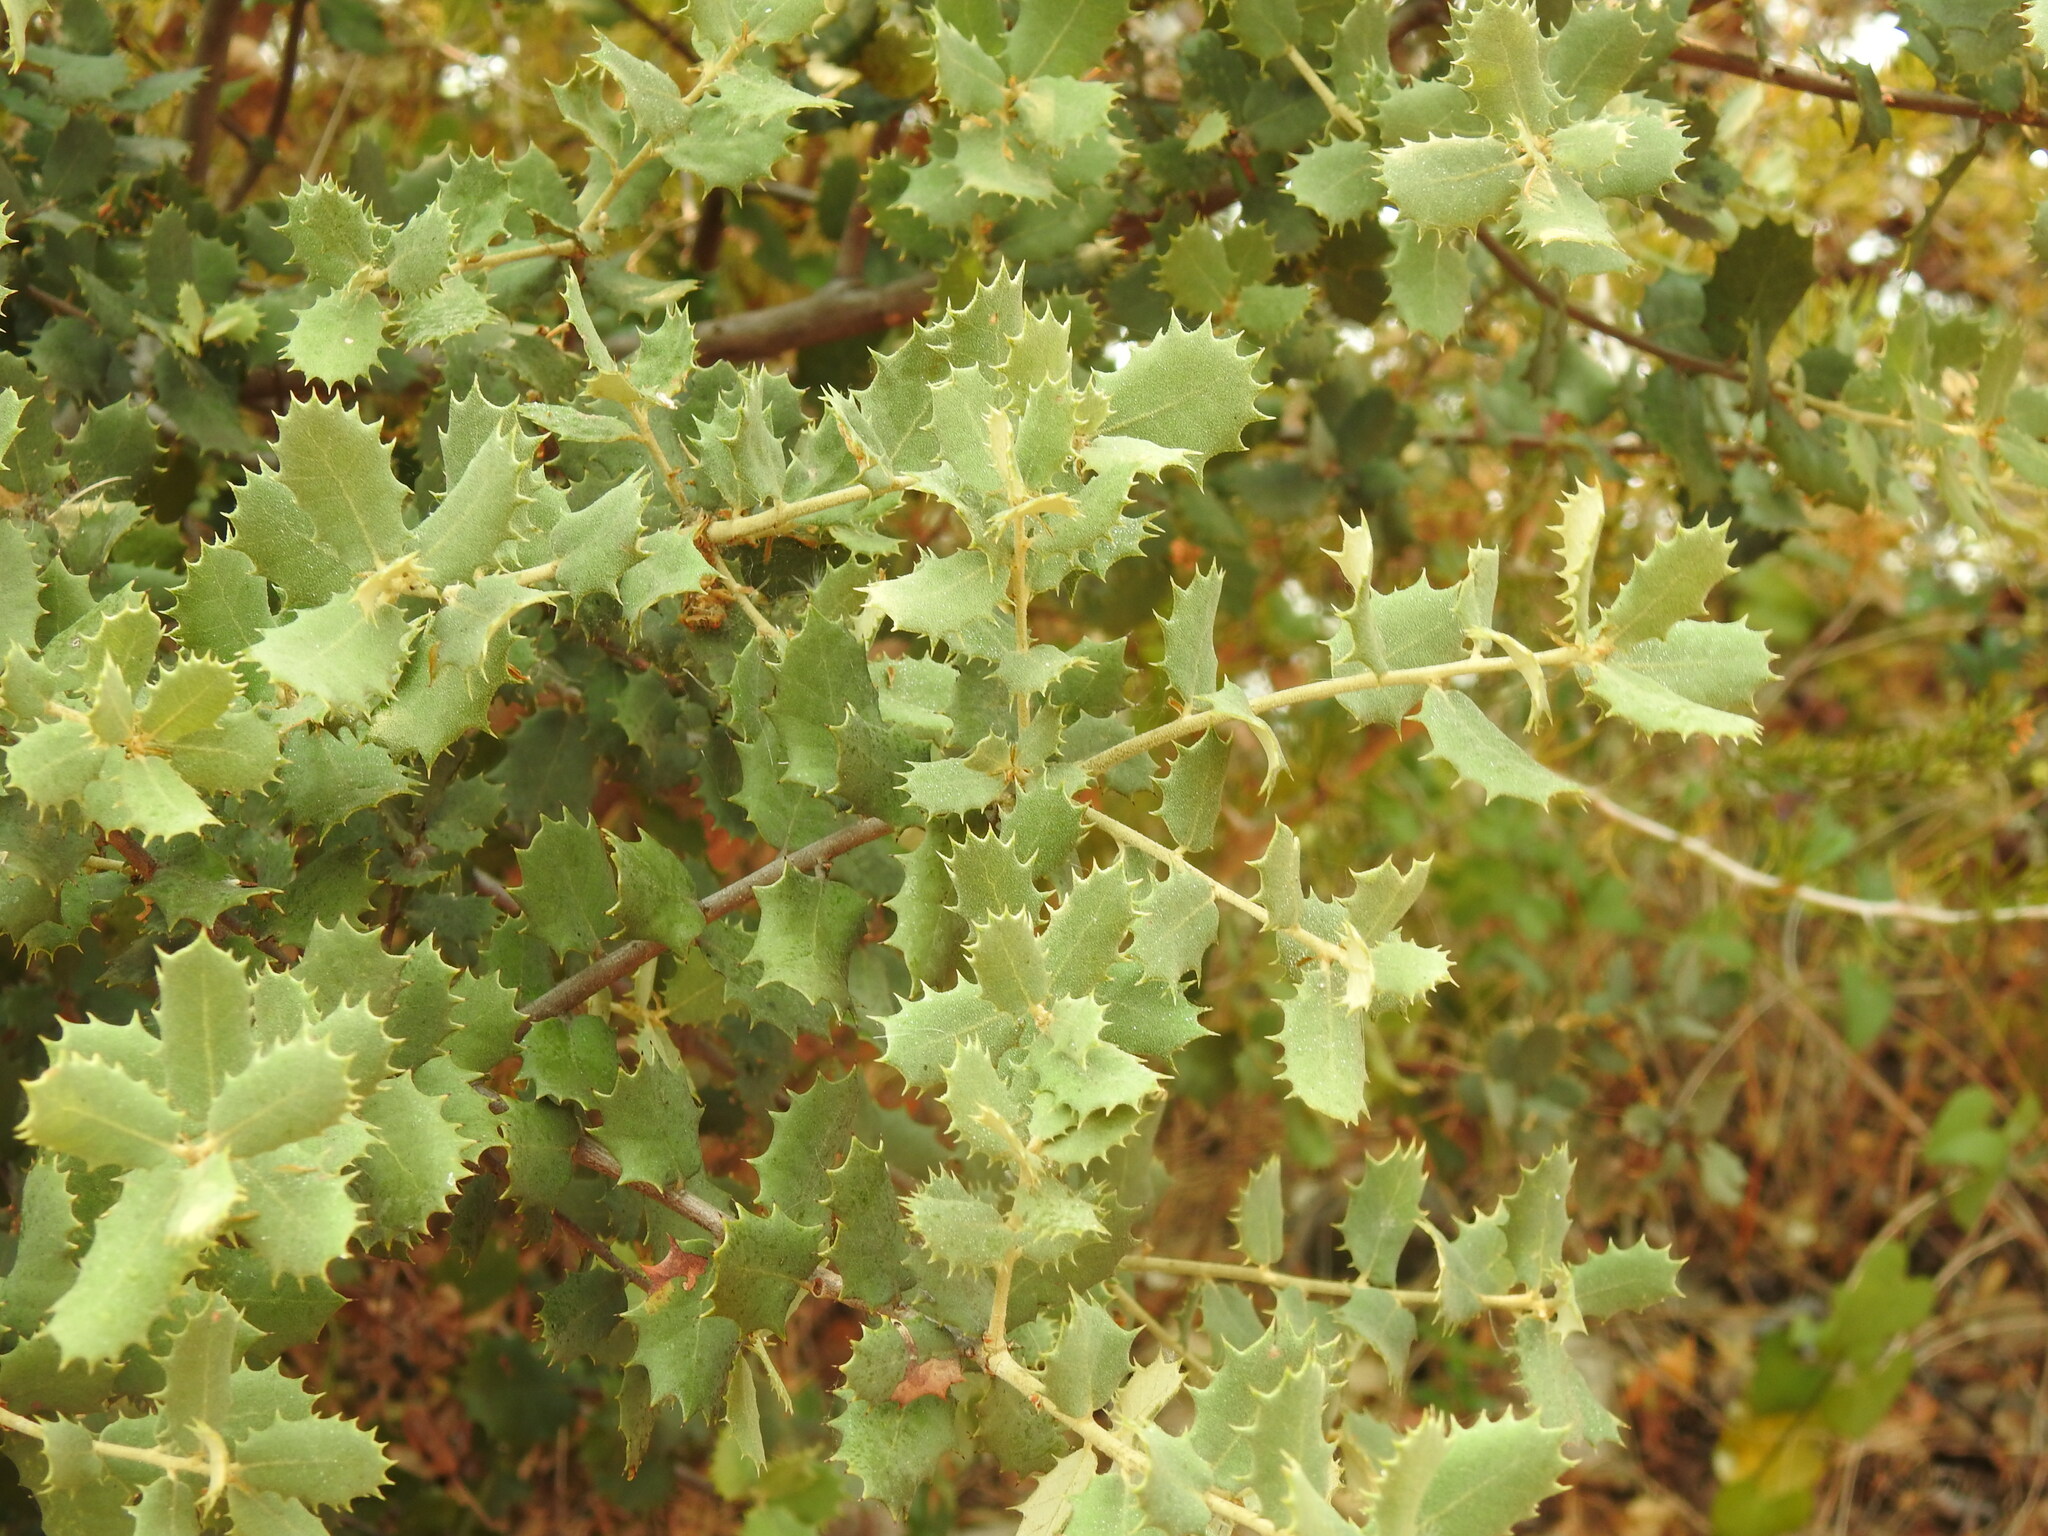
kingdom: Plantae
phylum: Tracheophyta
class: Magnoliopsida
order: Fagales
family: Fagaceae
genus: Quercus
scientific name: Quercus rotundifolia
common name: Holm oak
